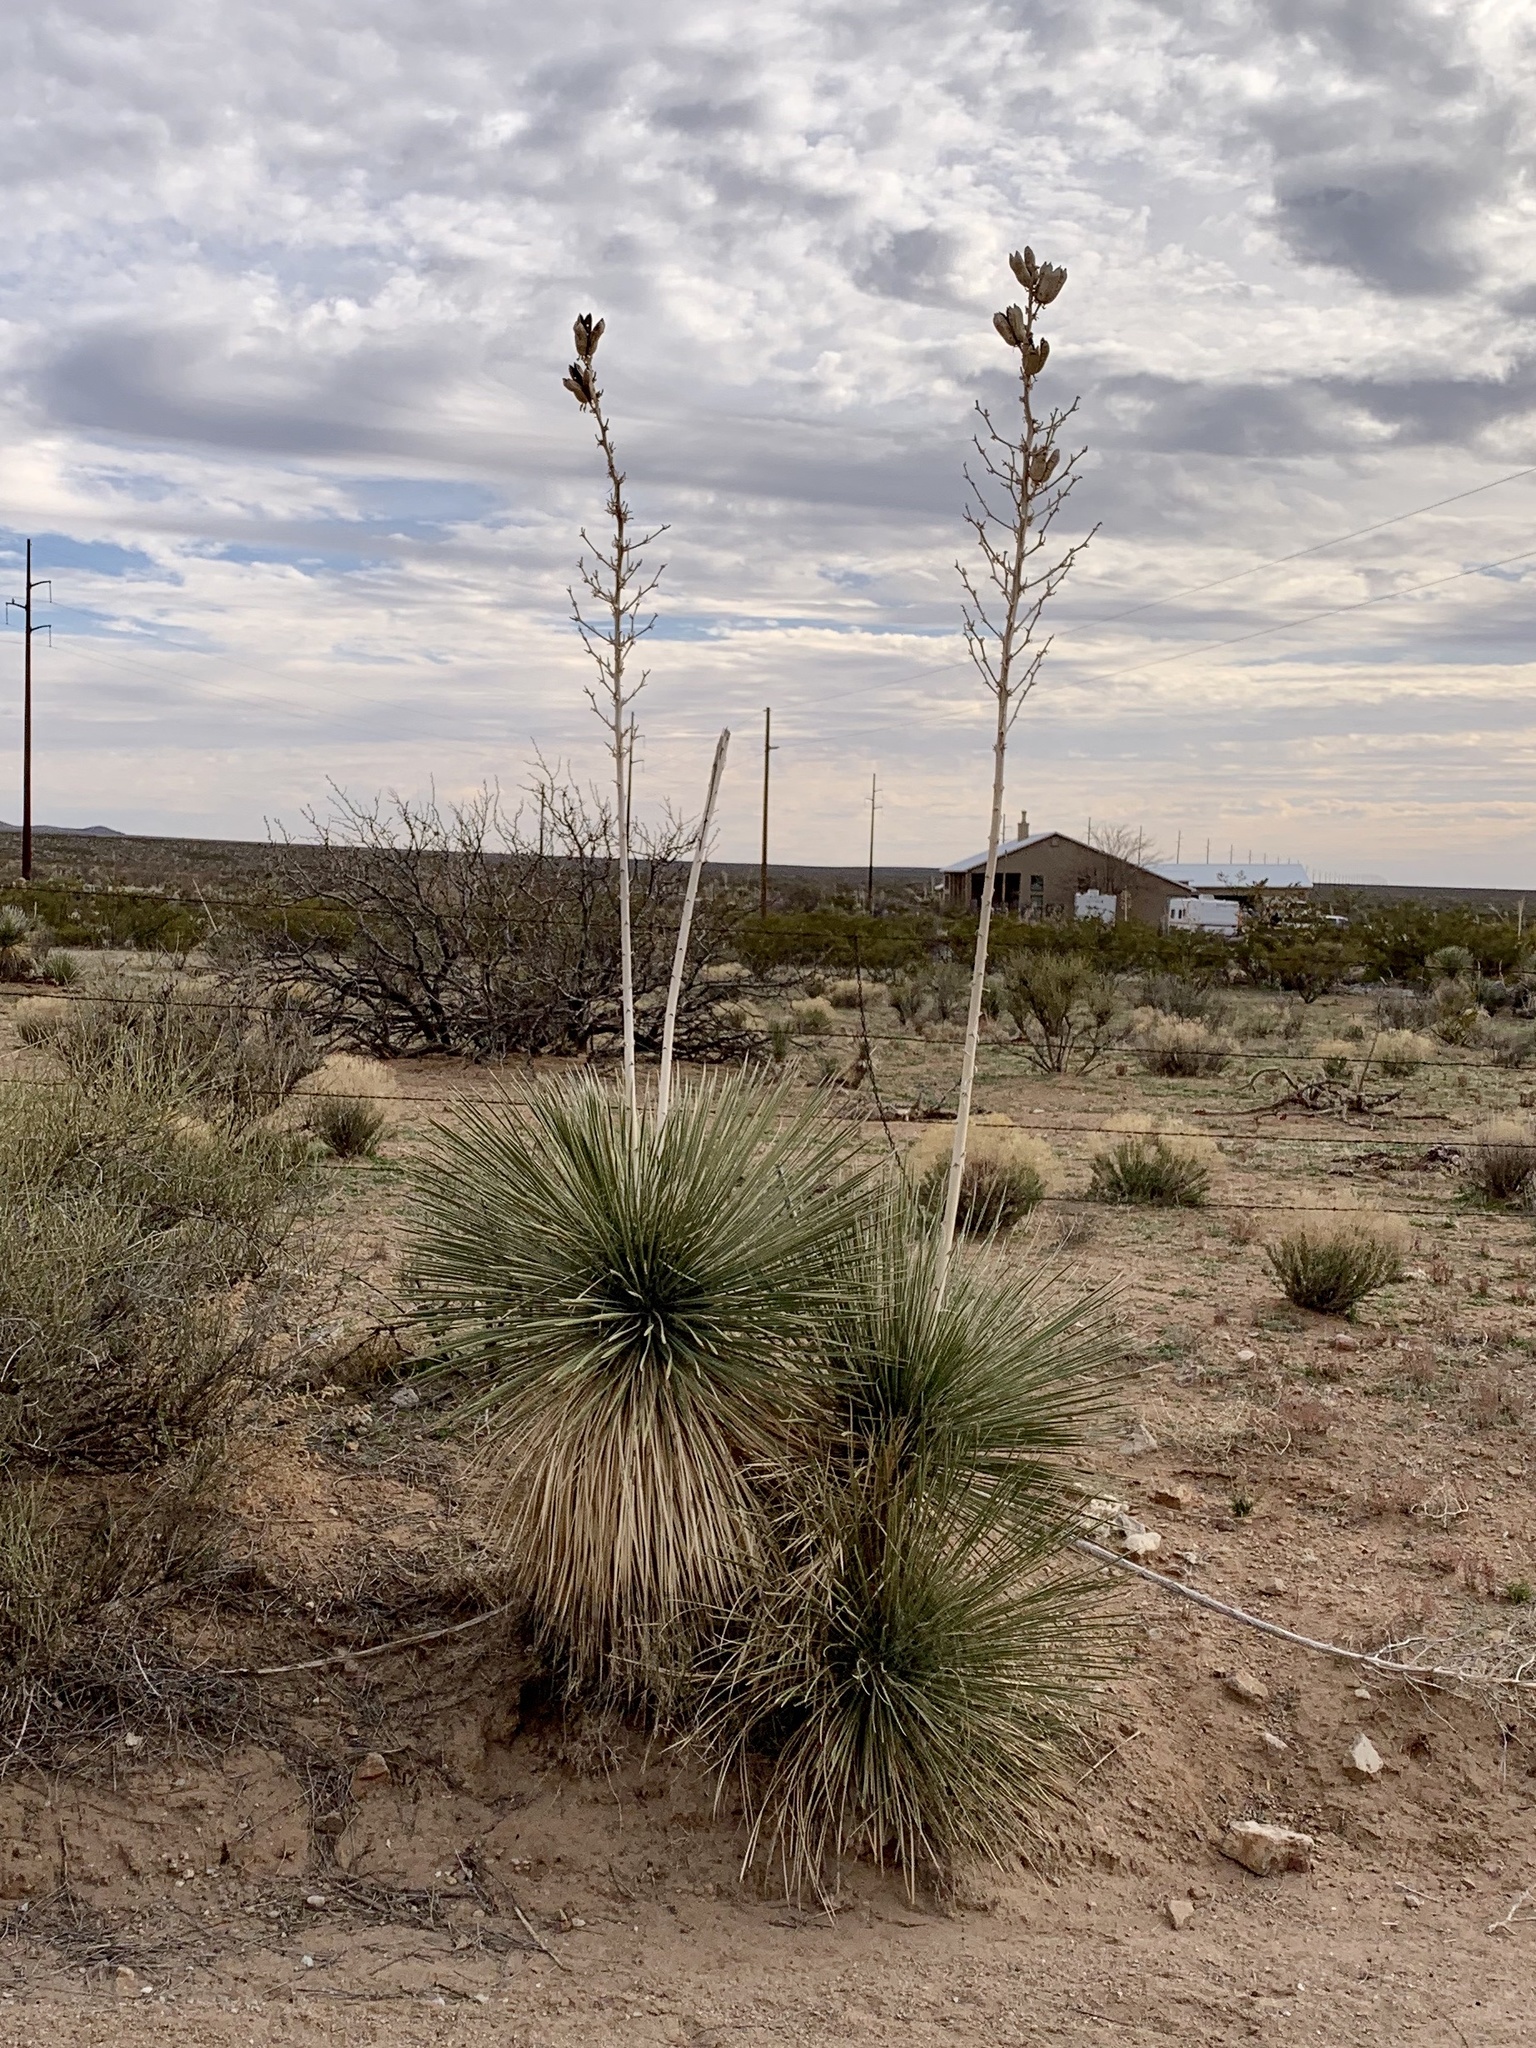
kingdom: Plantae
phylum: Tracheophyta
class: Liliopsida
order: Asparagales
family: Asparagaceae
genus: Yucca
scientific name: Yucca elata
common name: Palmella
